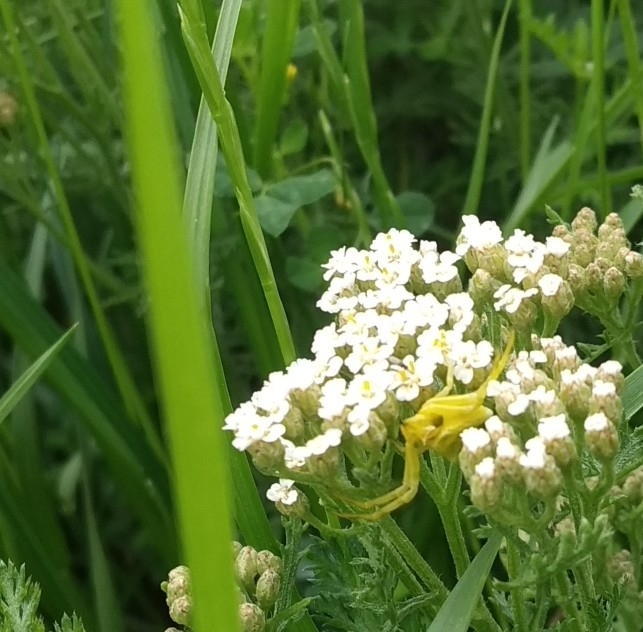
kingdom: Animalia
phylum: Arthropoda
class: Arachnida
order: Araneae
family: Thomisidae
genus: Thomisus
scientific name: Thomisus onustus
